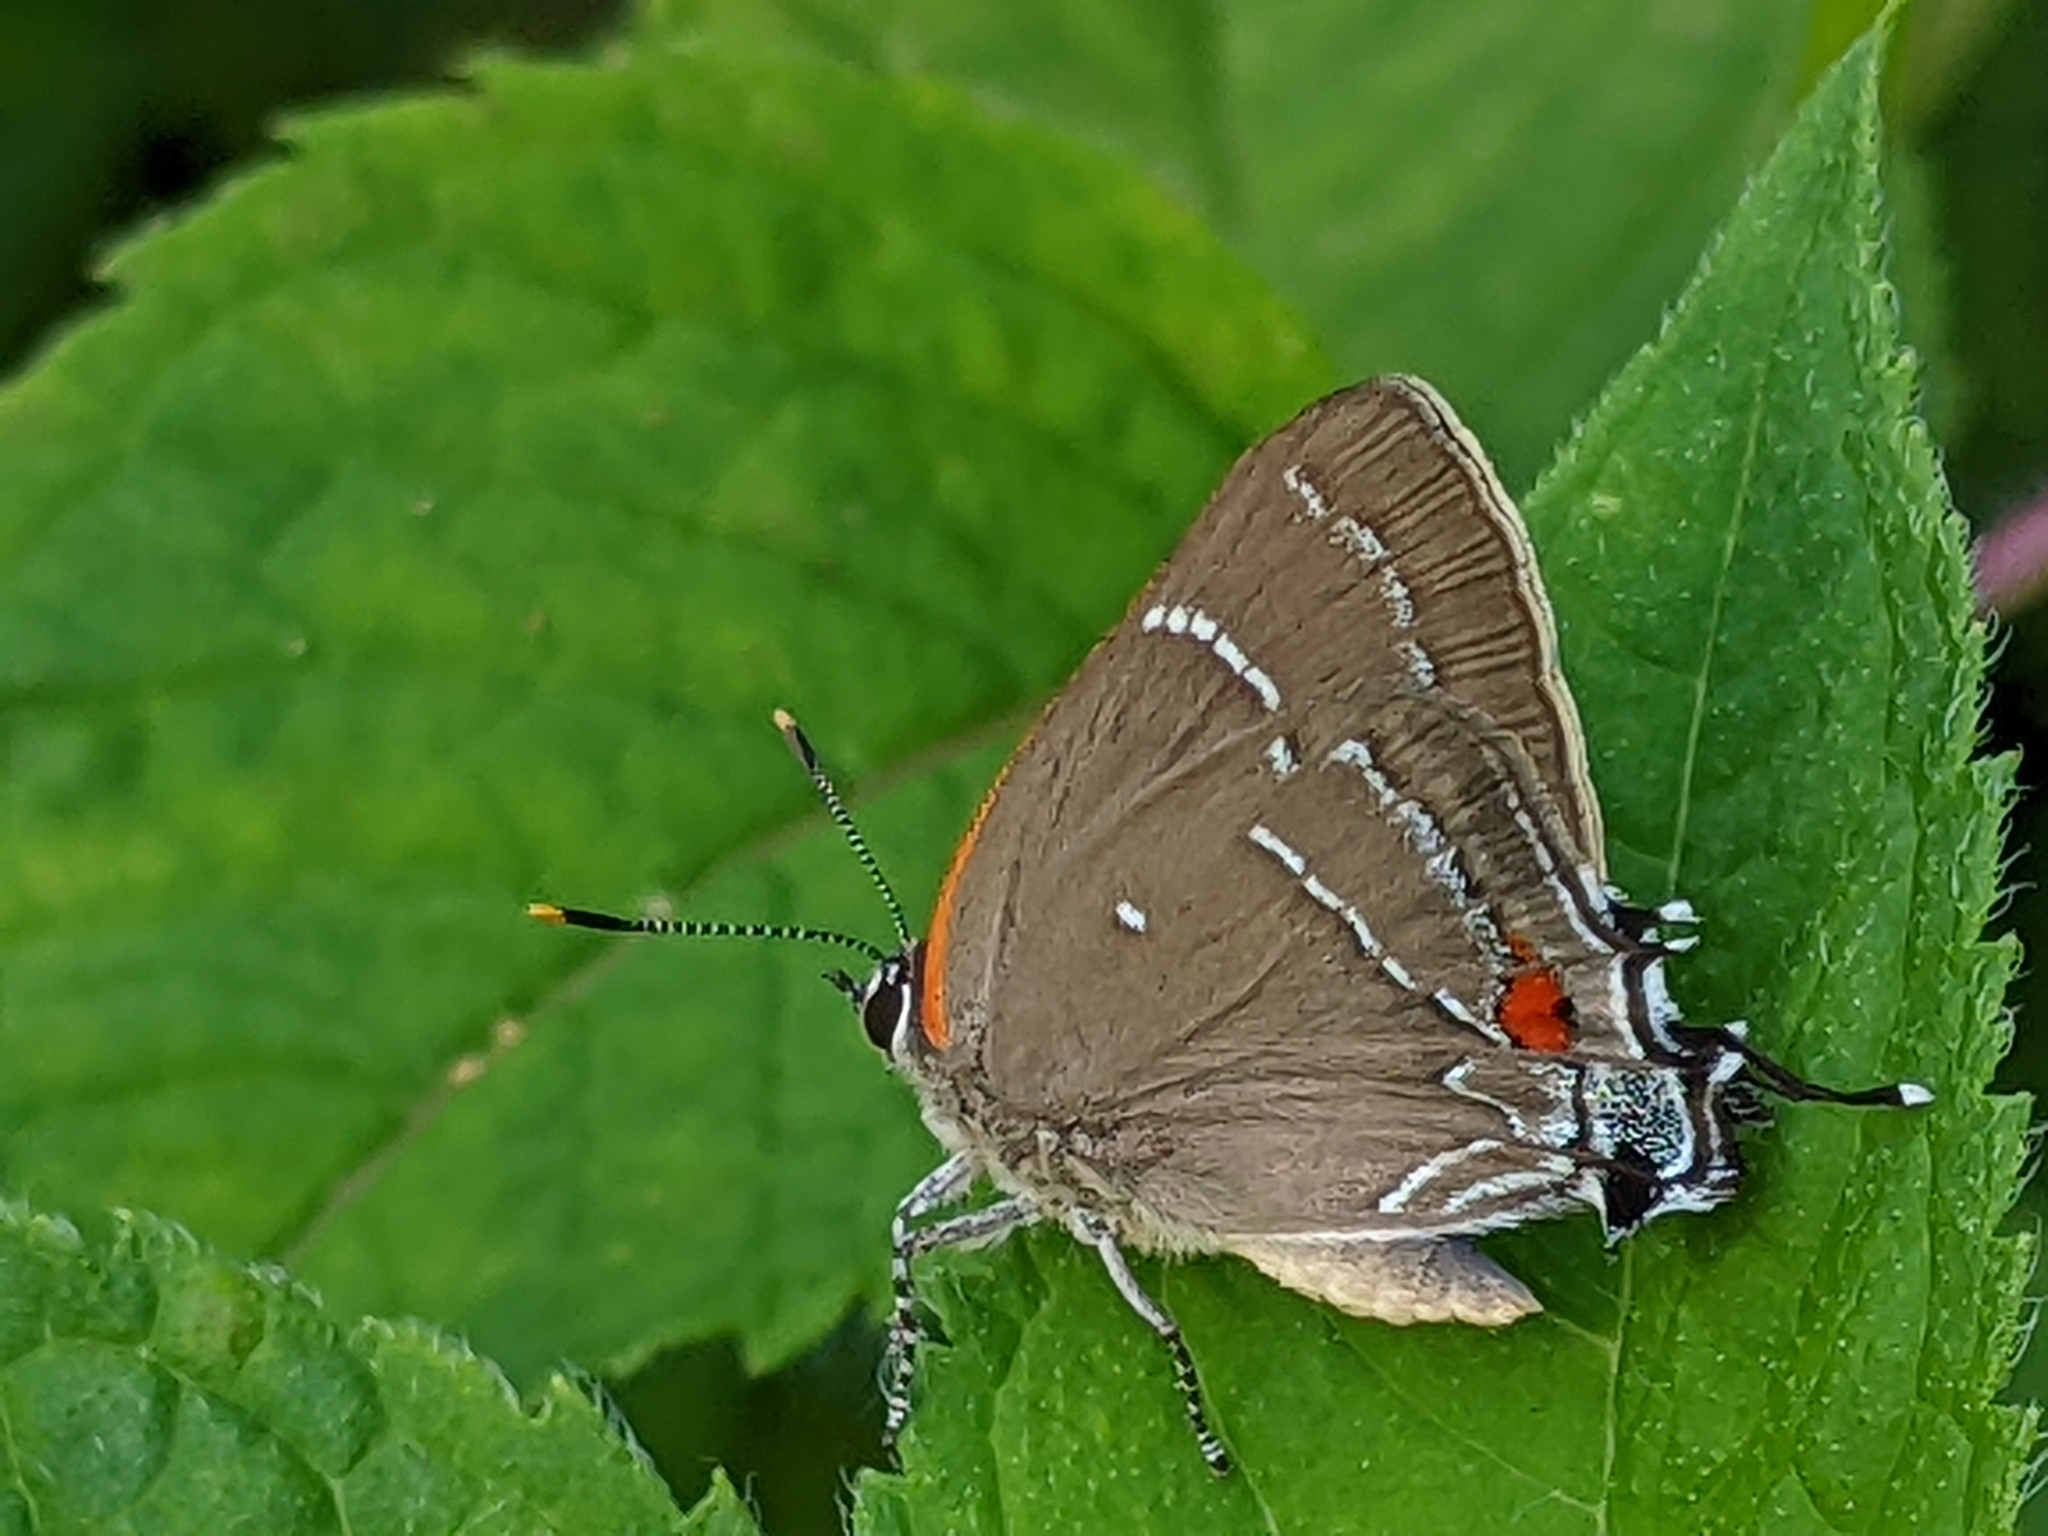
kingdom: Animalia
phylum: Arthropoda
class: Insecta
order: Lepidoptera
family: Lycaenidae
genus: Parrhasius
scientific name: Parrhasius m-album
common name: White m hairstreak
